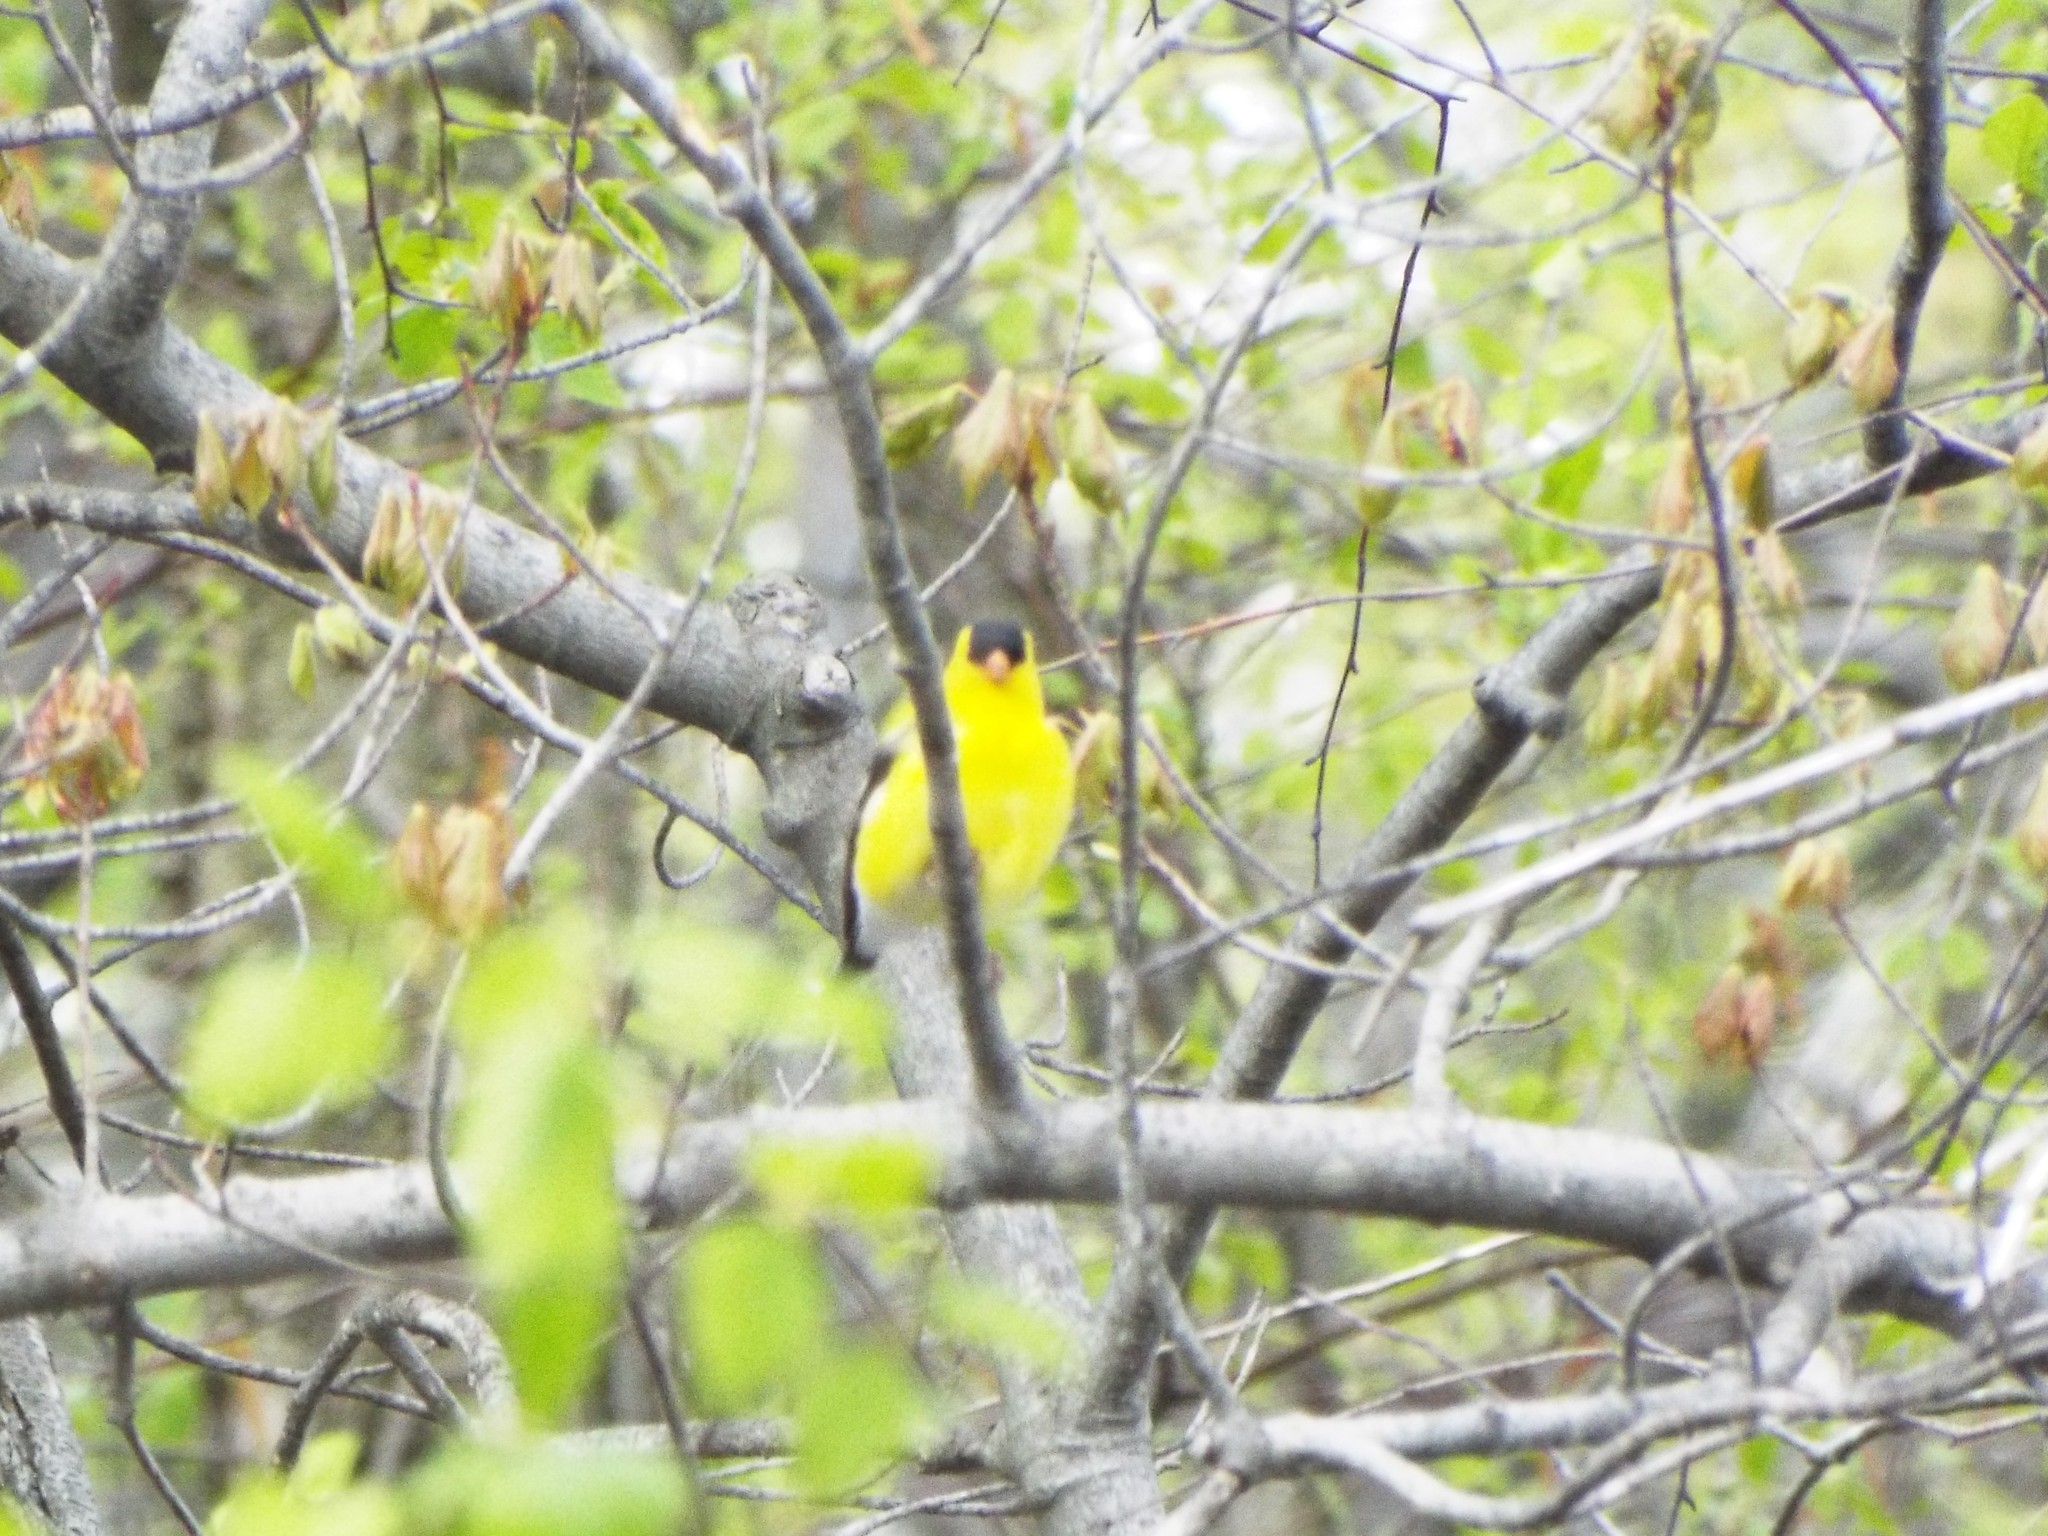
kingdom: Animalia
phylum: Chordata
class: Aves
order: Passeriformes
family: Fringillidae
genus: Spinus
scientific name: Spinus tristis
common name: American goldfinch
